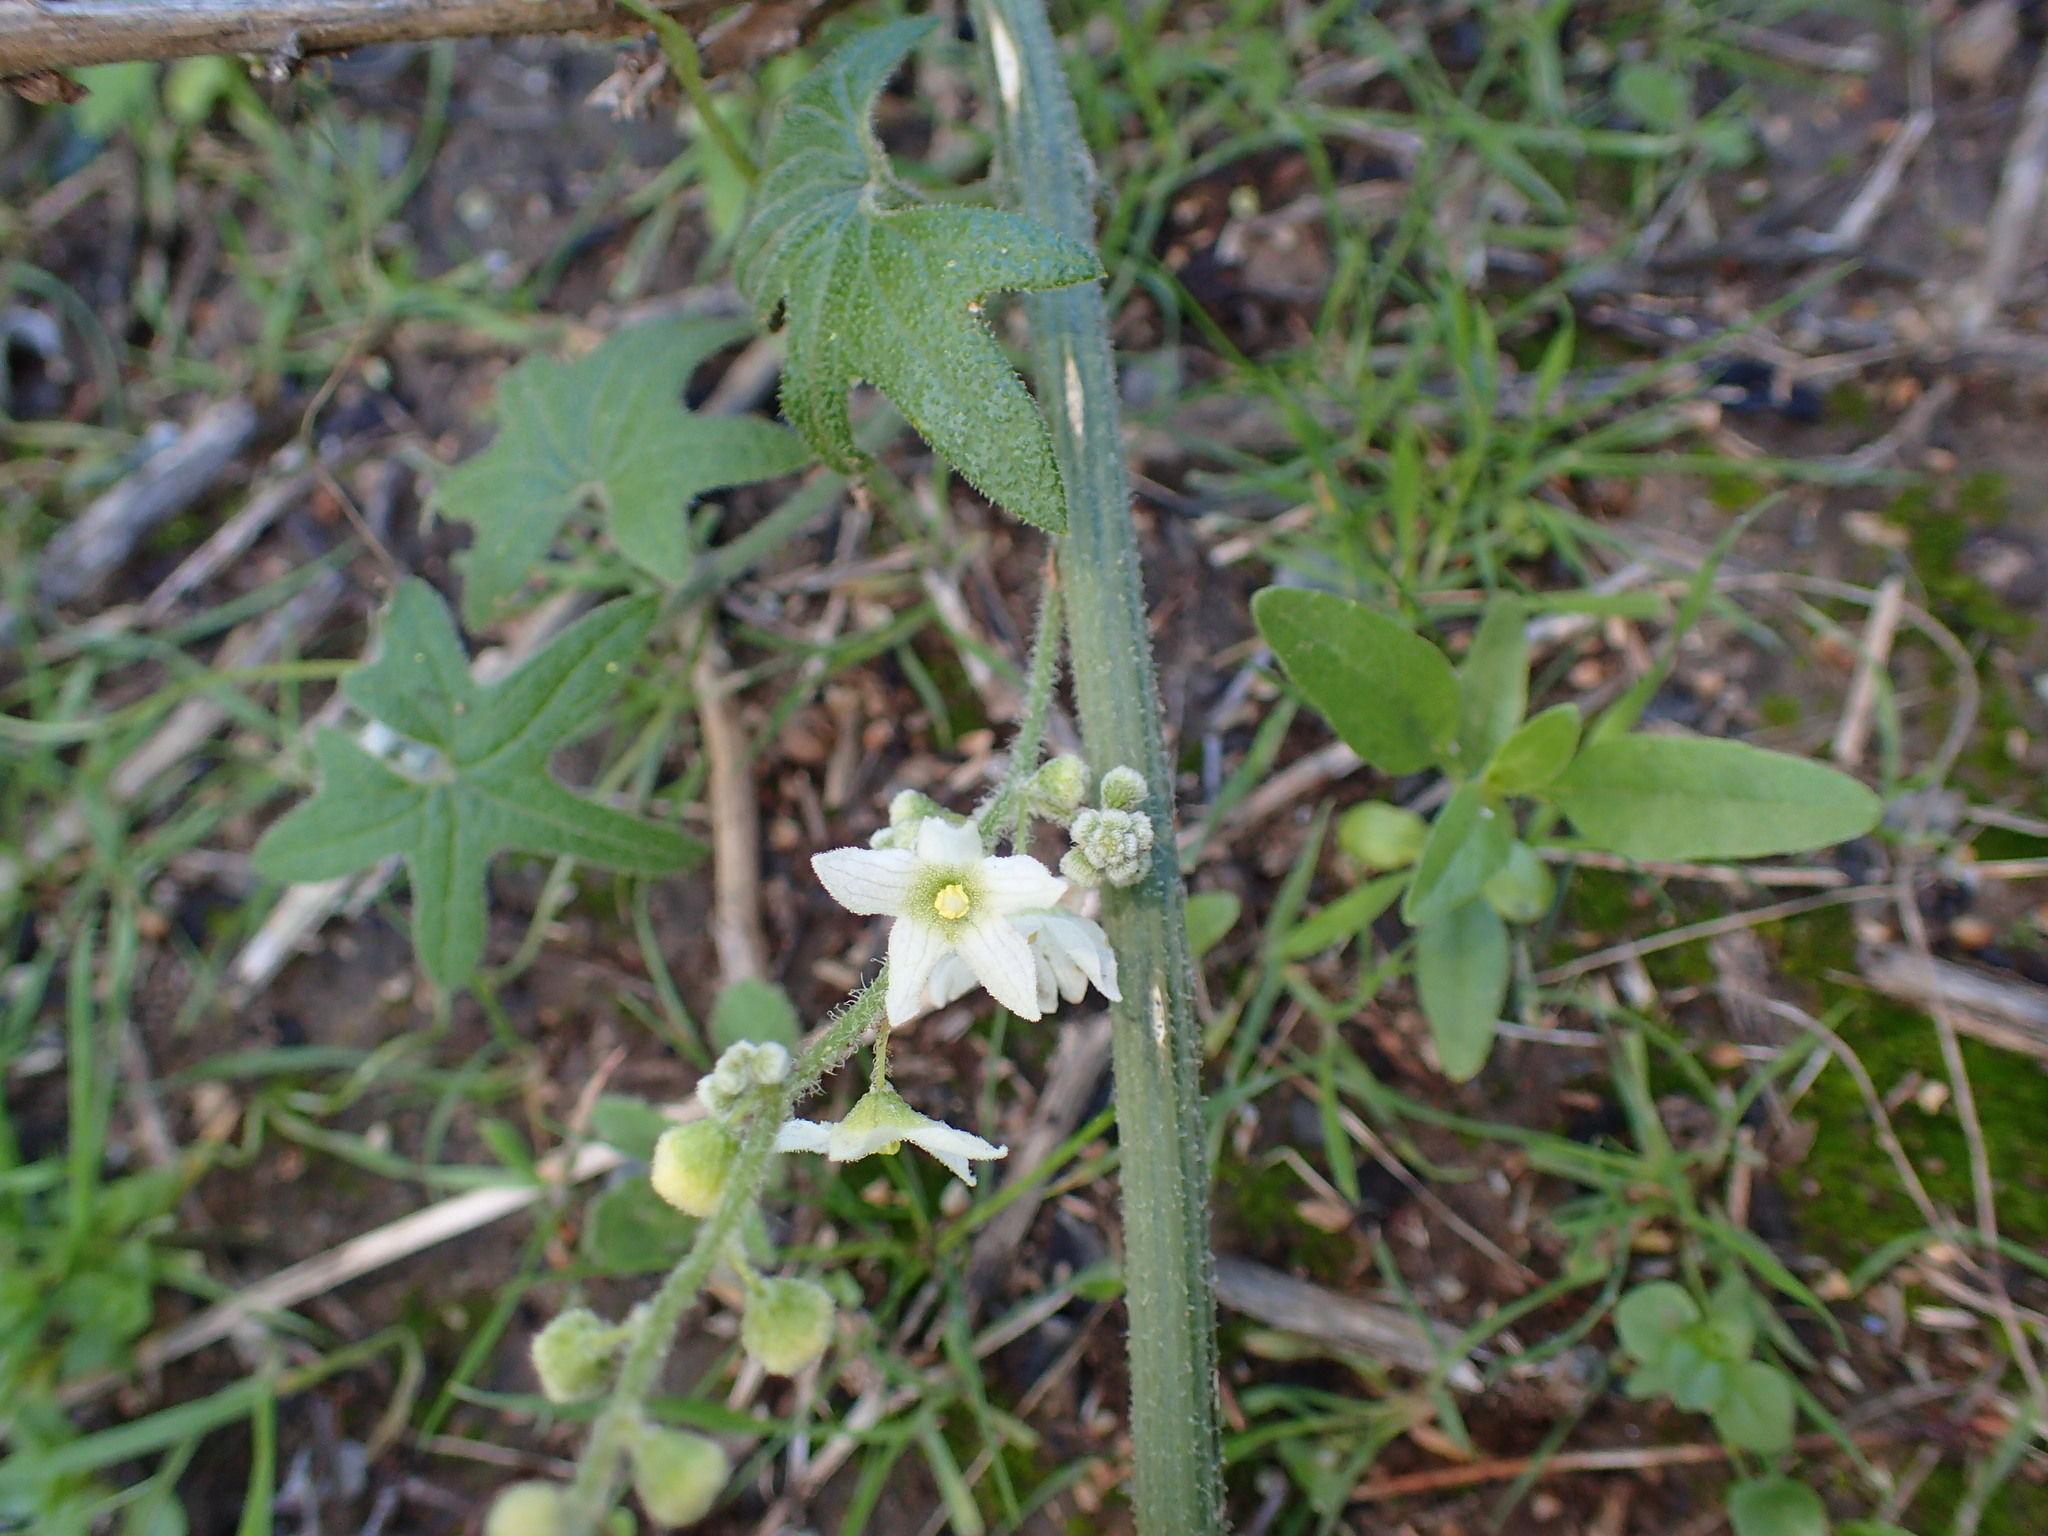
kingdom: Plantae
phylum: Tracheophyta
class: Magnoliopsida
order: Cucurbitales
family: Cucurbitaceae
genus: Marah
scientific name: Marah macrocarpa
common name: Cucamonga manroot
